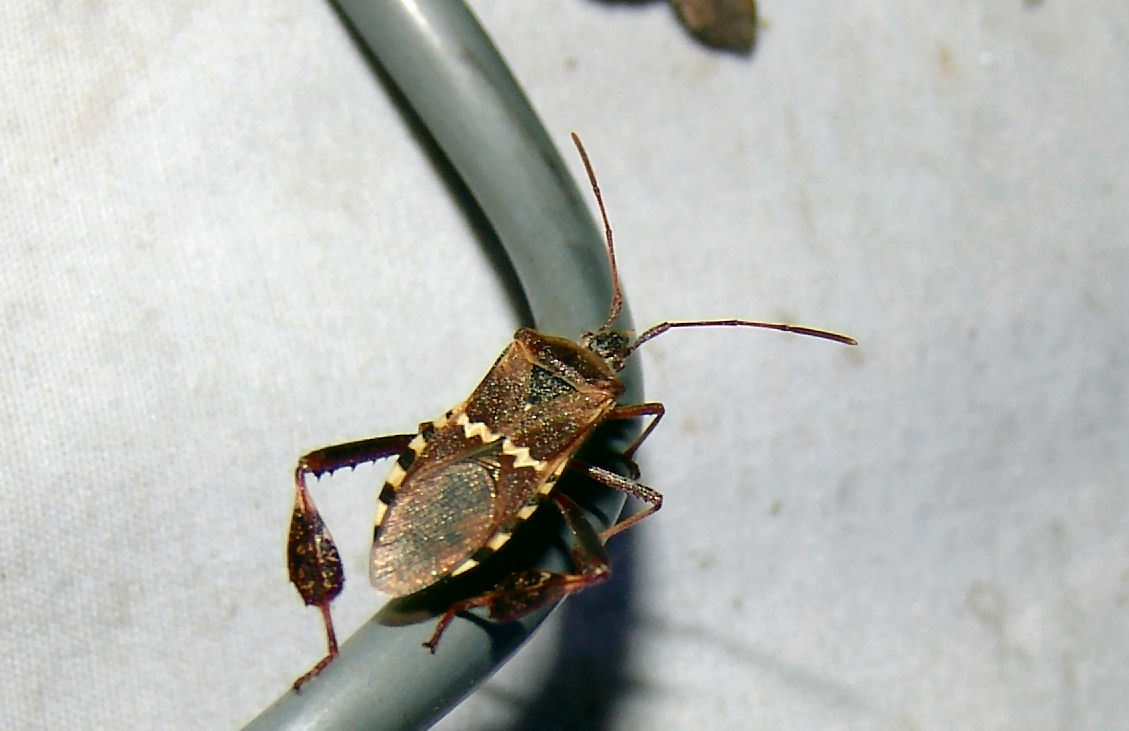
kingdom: Animalia
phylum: Arthropoda
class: Insecta
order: Hemiptera
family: Coreidae
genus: Leptoglossus
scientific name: Leptoglossus clypealis
